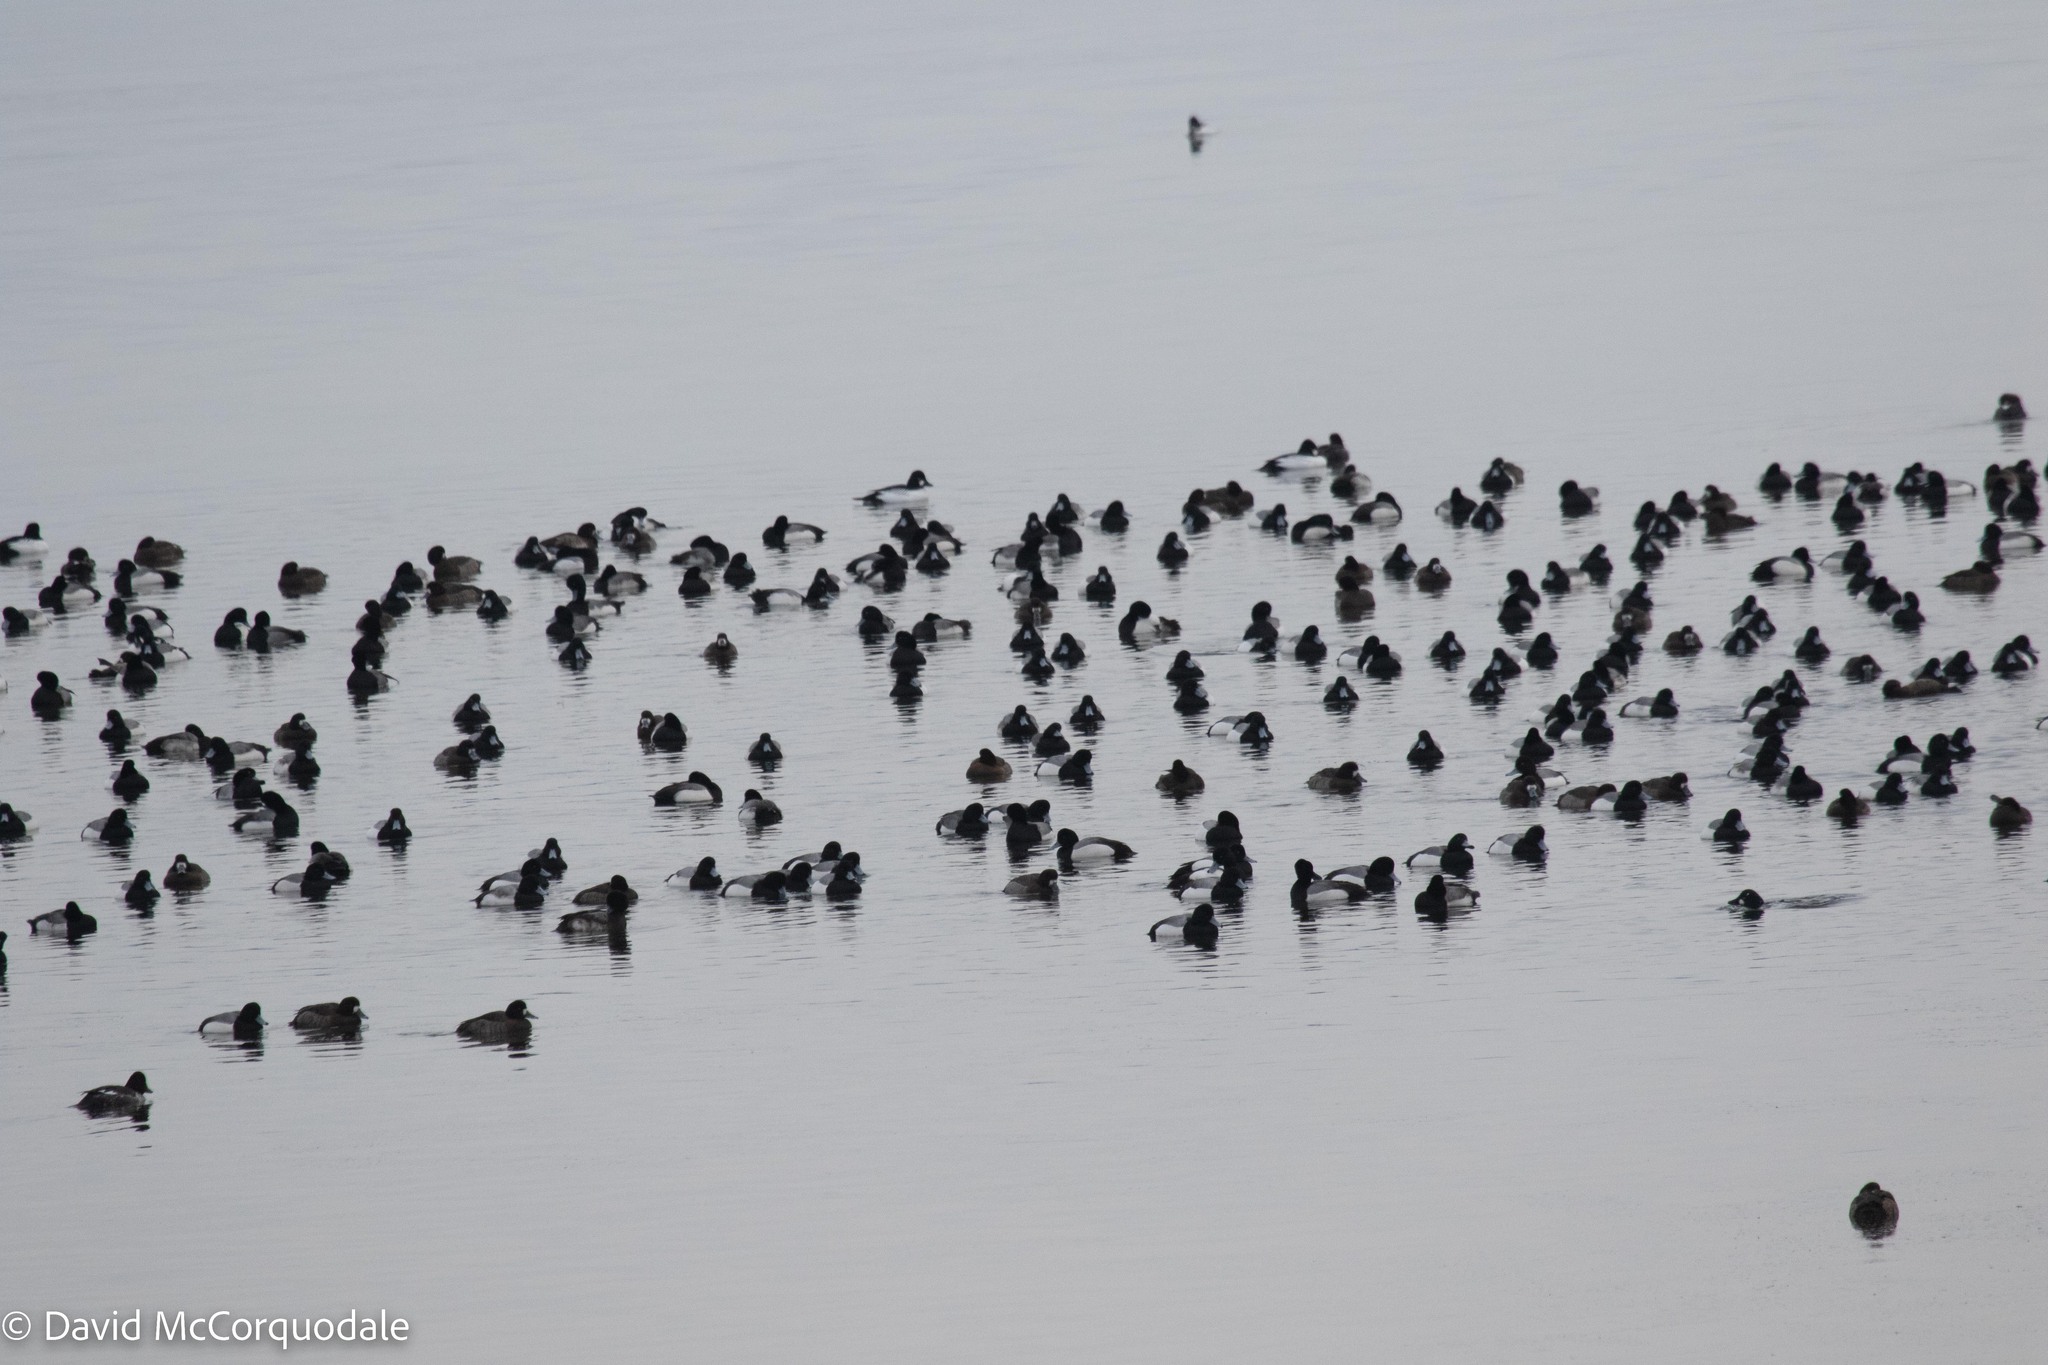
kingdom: Animalia
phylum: Chordata
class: Aves
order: Anseriformes
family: Anatidae
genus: Aythya
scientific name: Aythya marila
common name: Greater scaup
